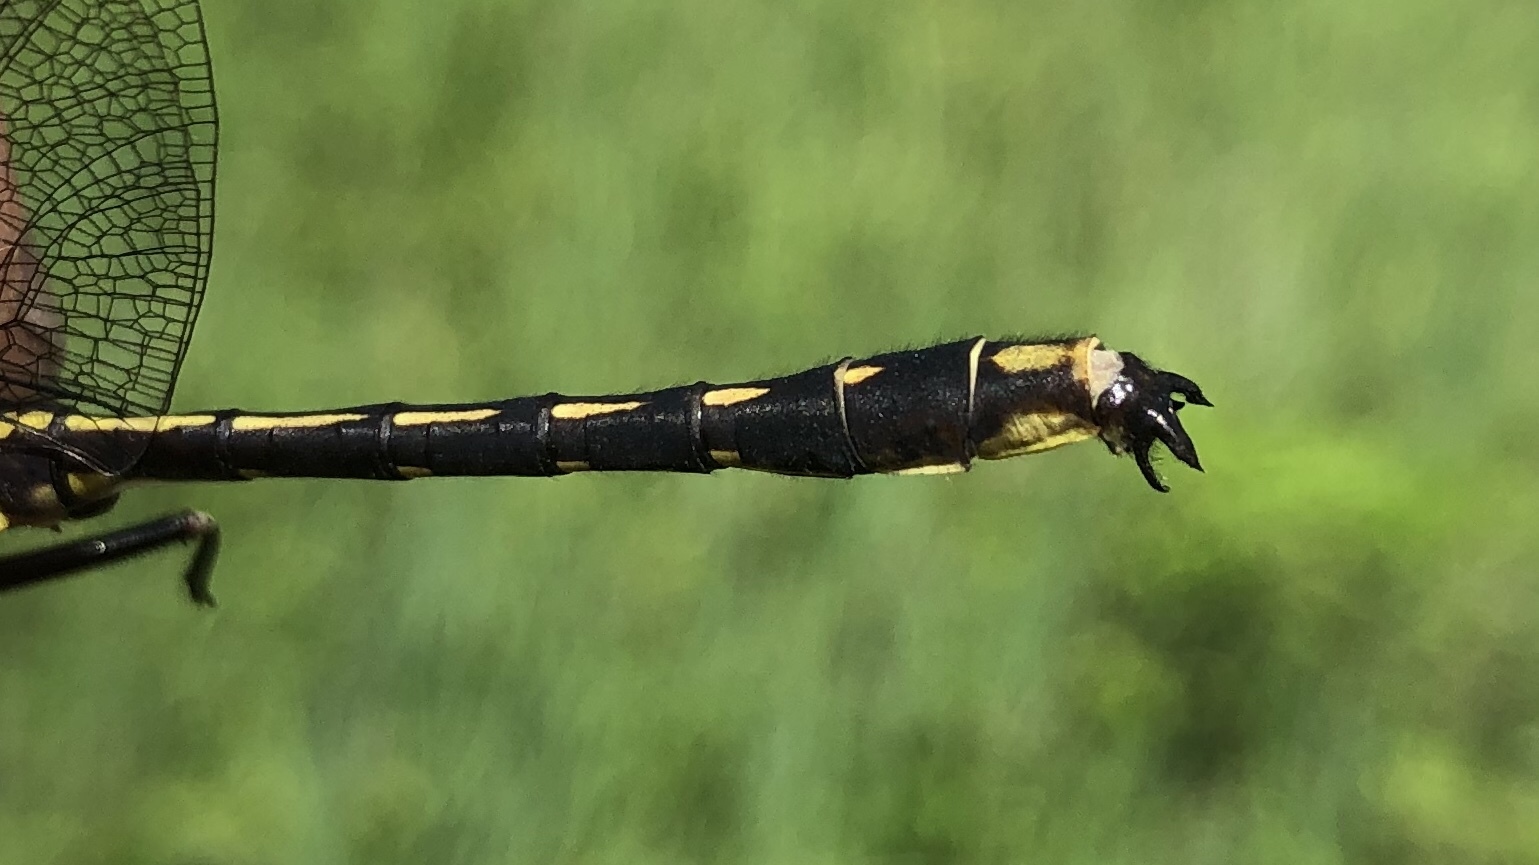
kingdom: Animalia
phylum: Arthropoda
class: Insecta
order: Odonata
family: Gomphidae
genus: Phanogomphus
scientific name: Phanogomphus lividus
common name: Ashy clubtail
